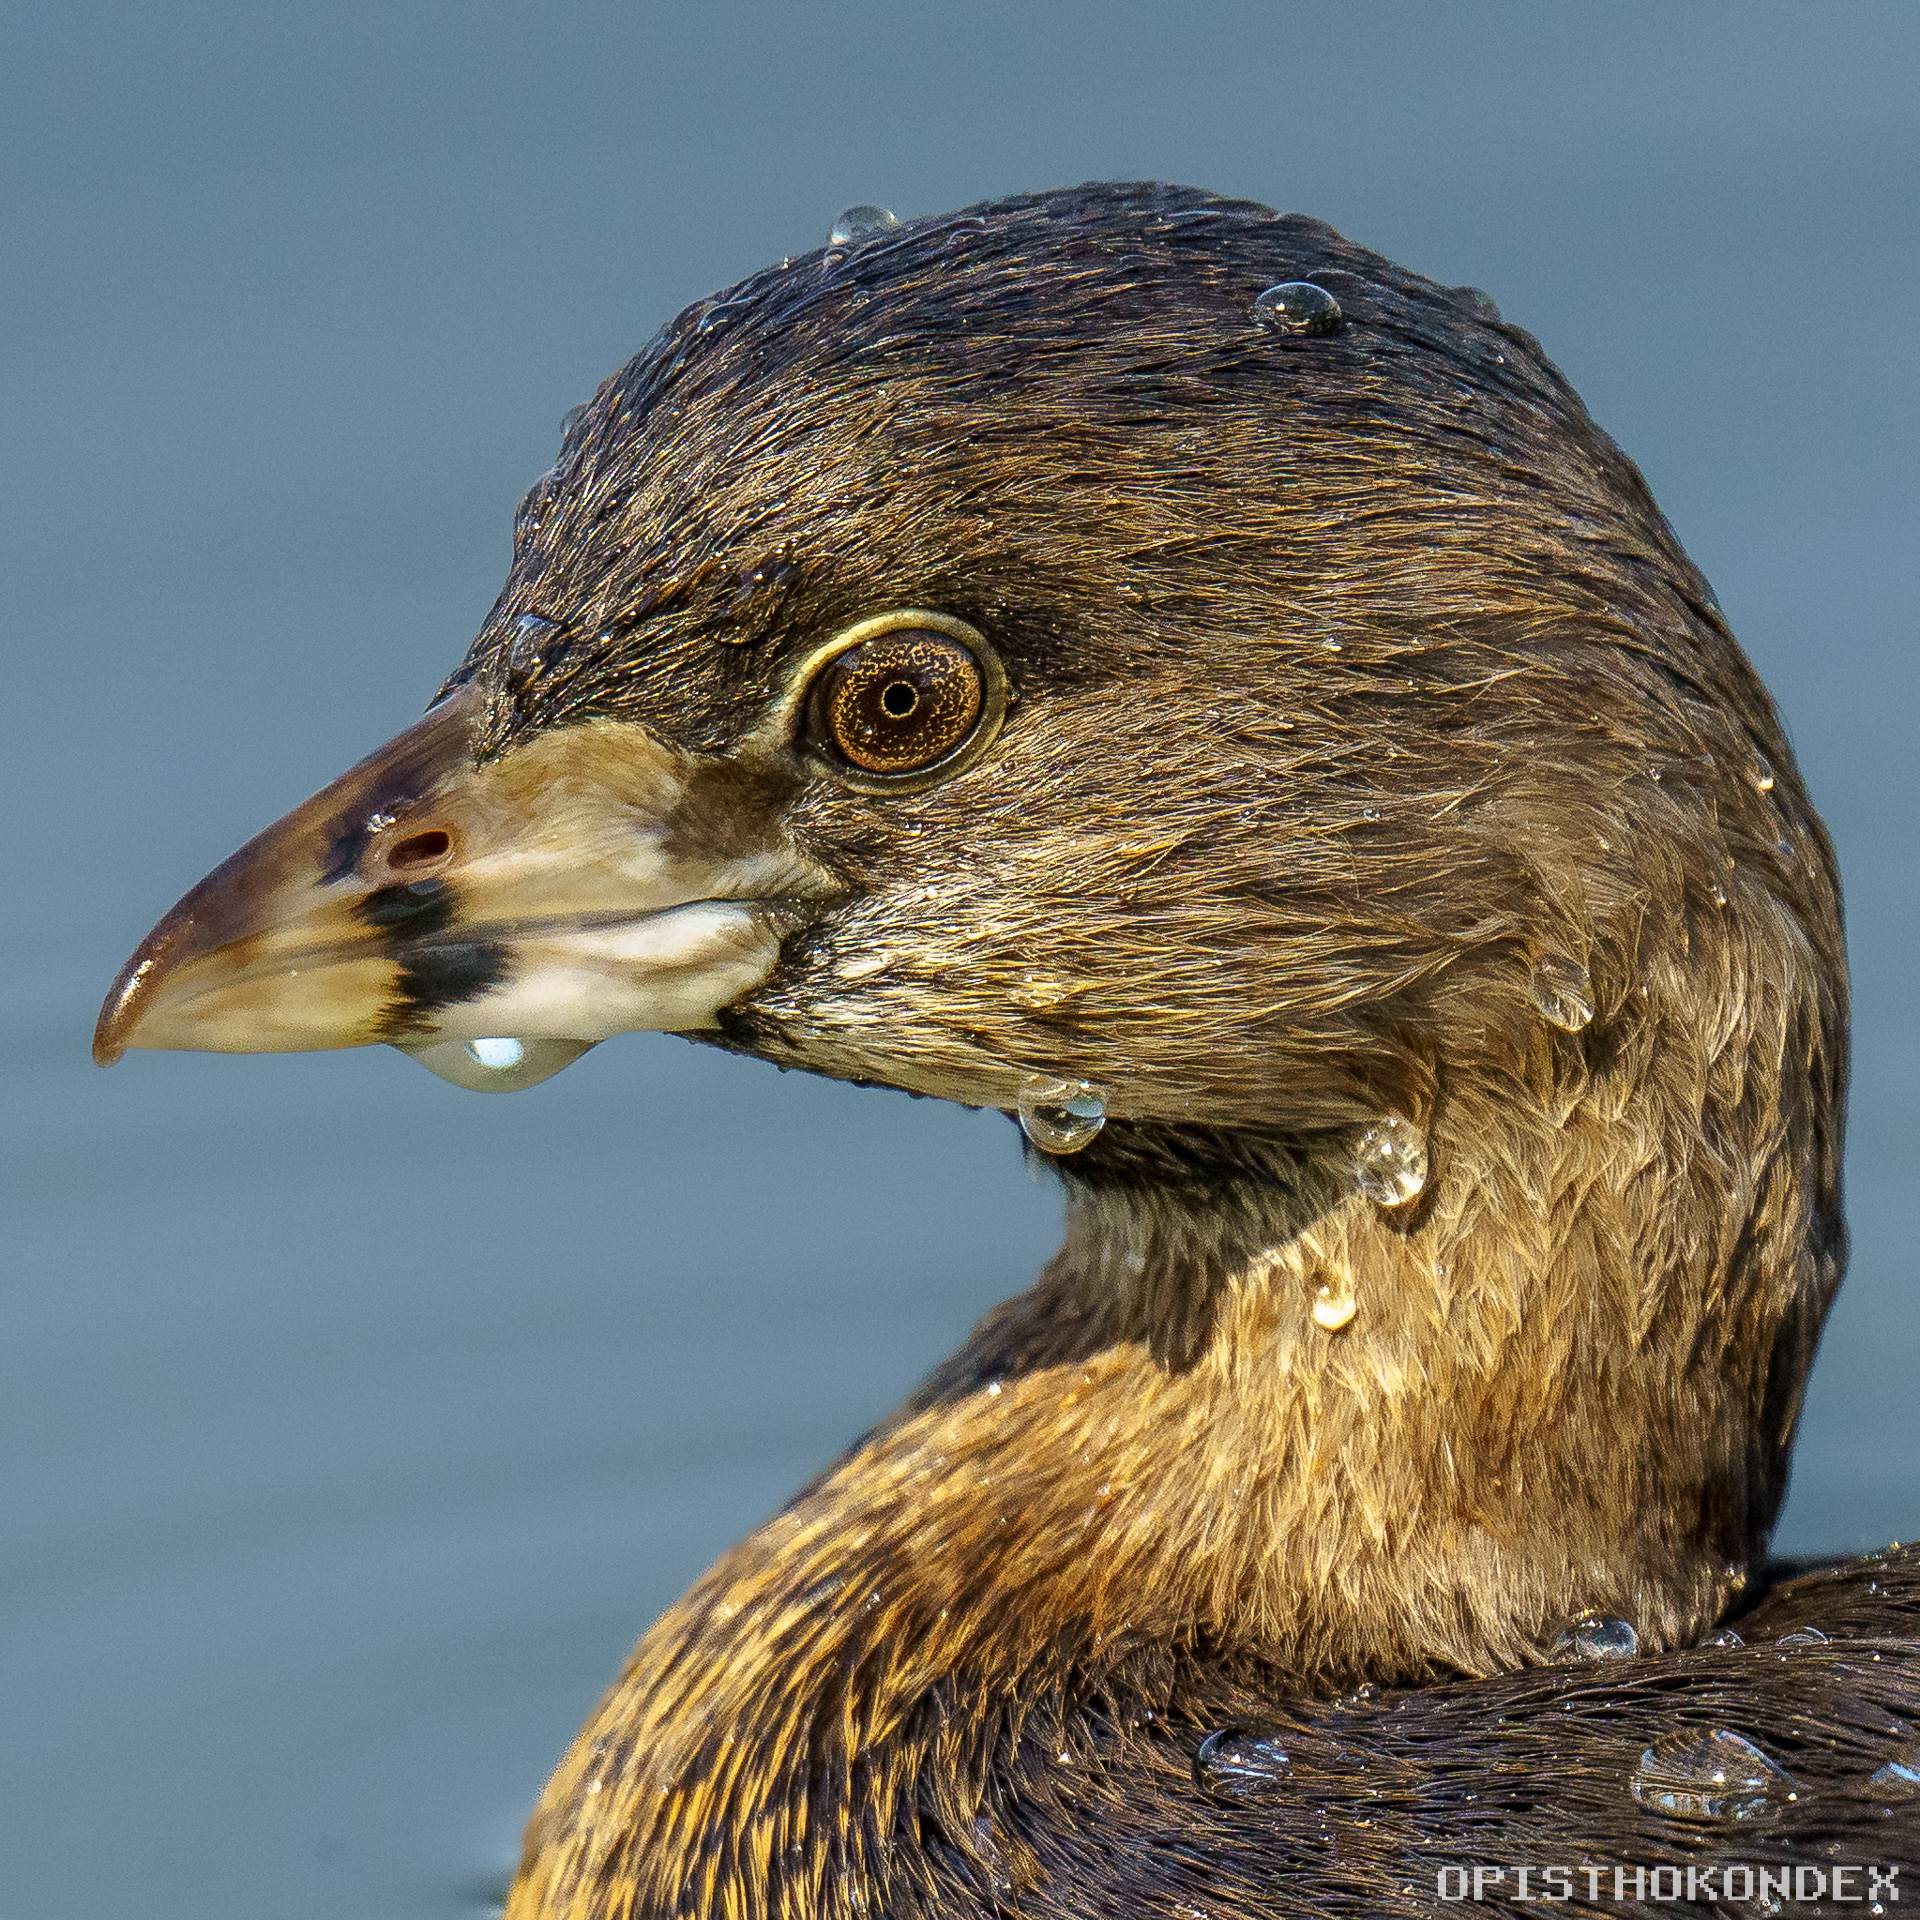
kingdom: Animalia
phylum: Chordata
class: Aves
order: Podicipediformes
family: Podicipedidae
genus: Podilymbus
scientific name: Podilymbus podiceps
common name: Pied-billed grebe
